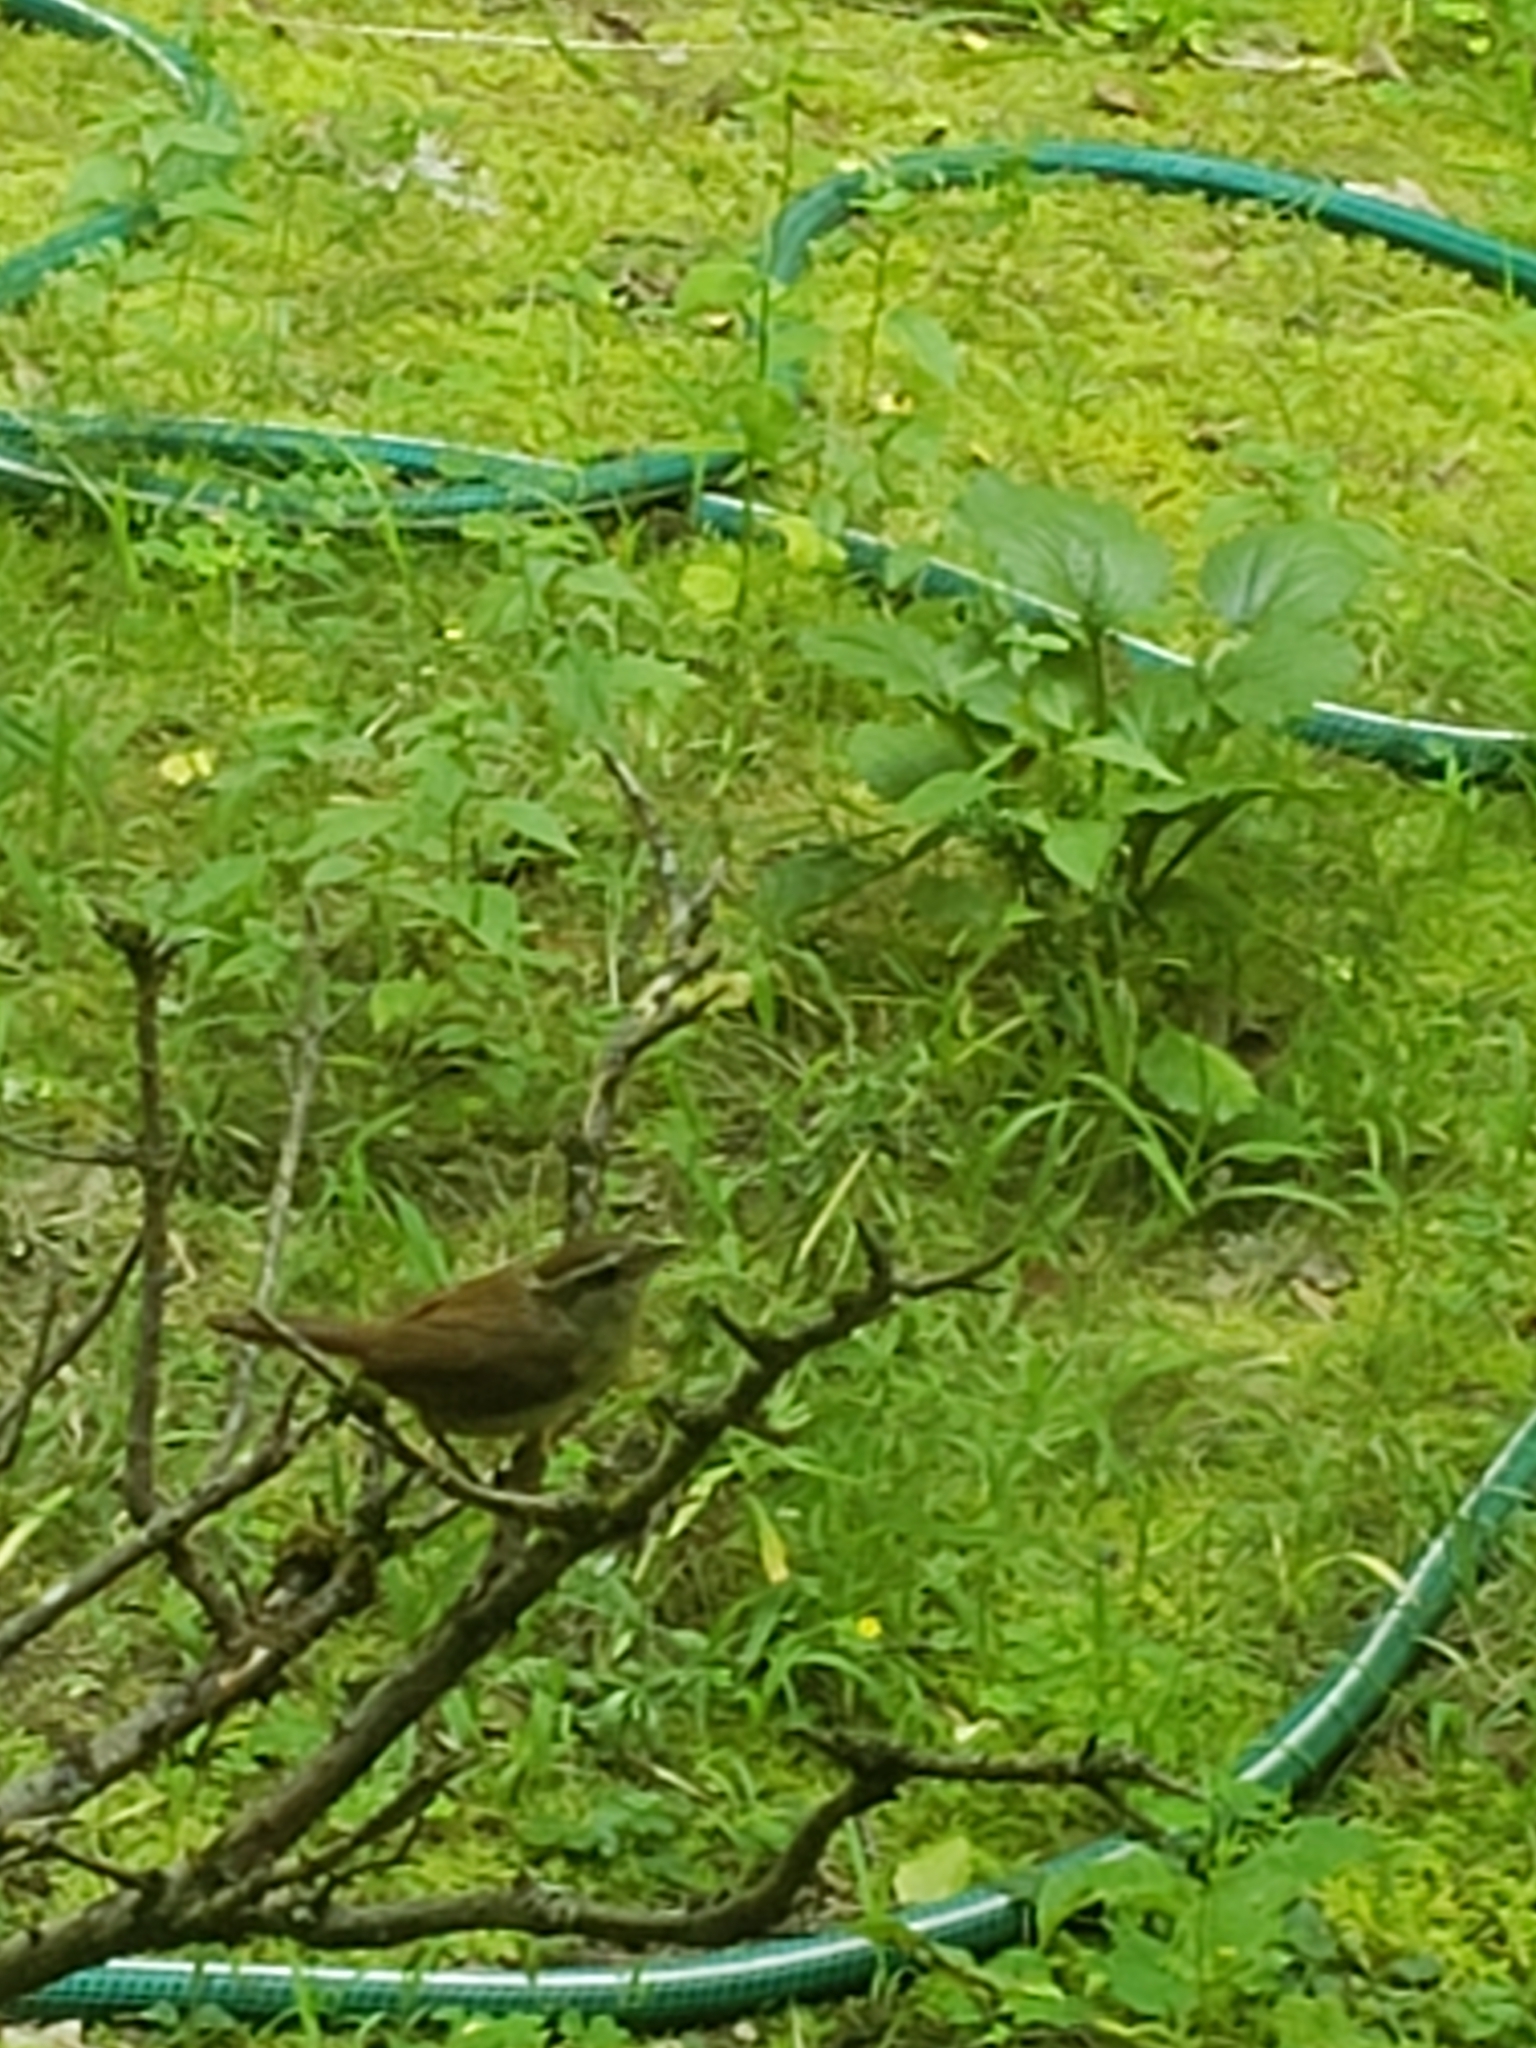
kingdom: Animalia
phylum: Chordata
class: Aves
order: Passeriformes
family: Troglodytidae
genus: Thryothorus
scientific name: Thryothorus ludovicianus
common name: Carolina wren
